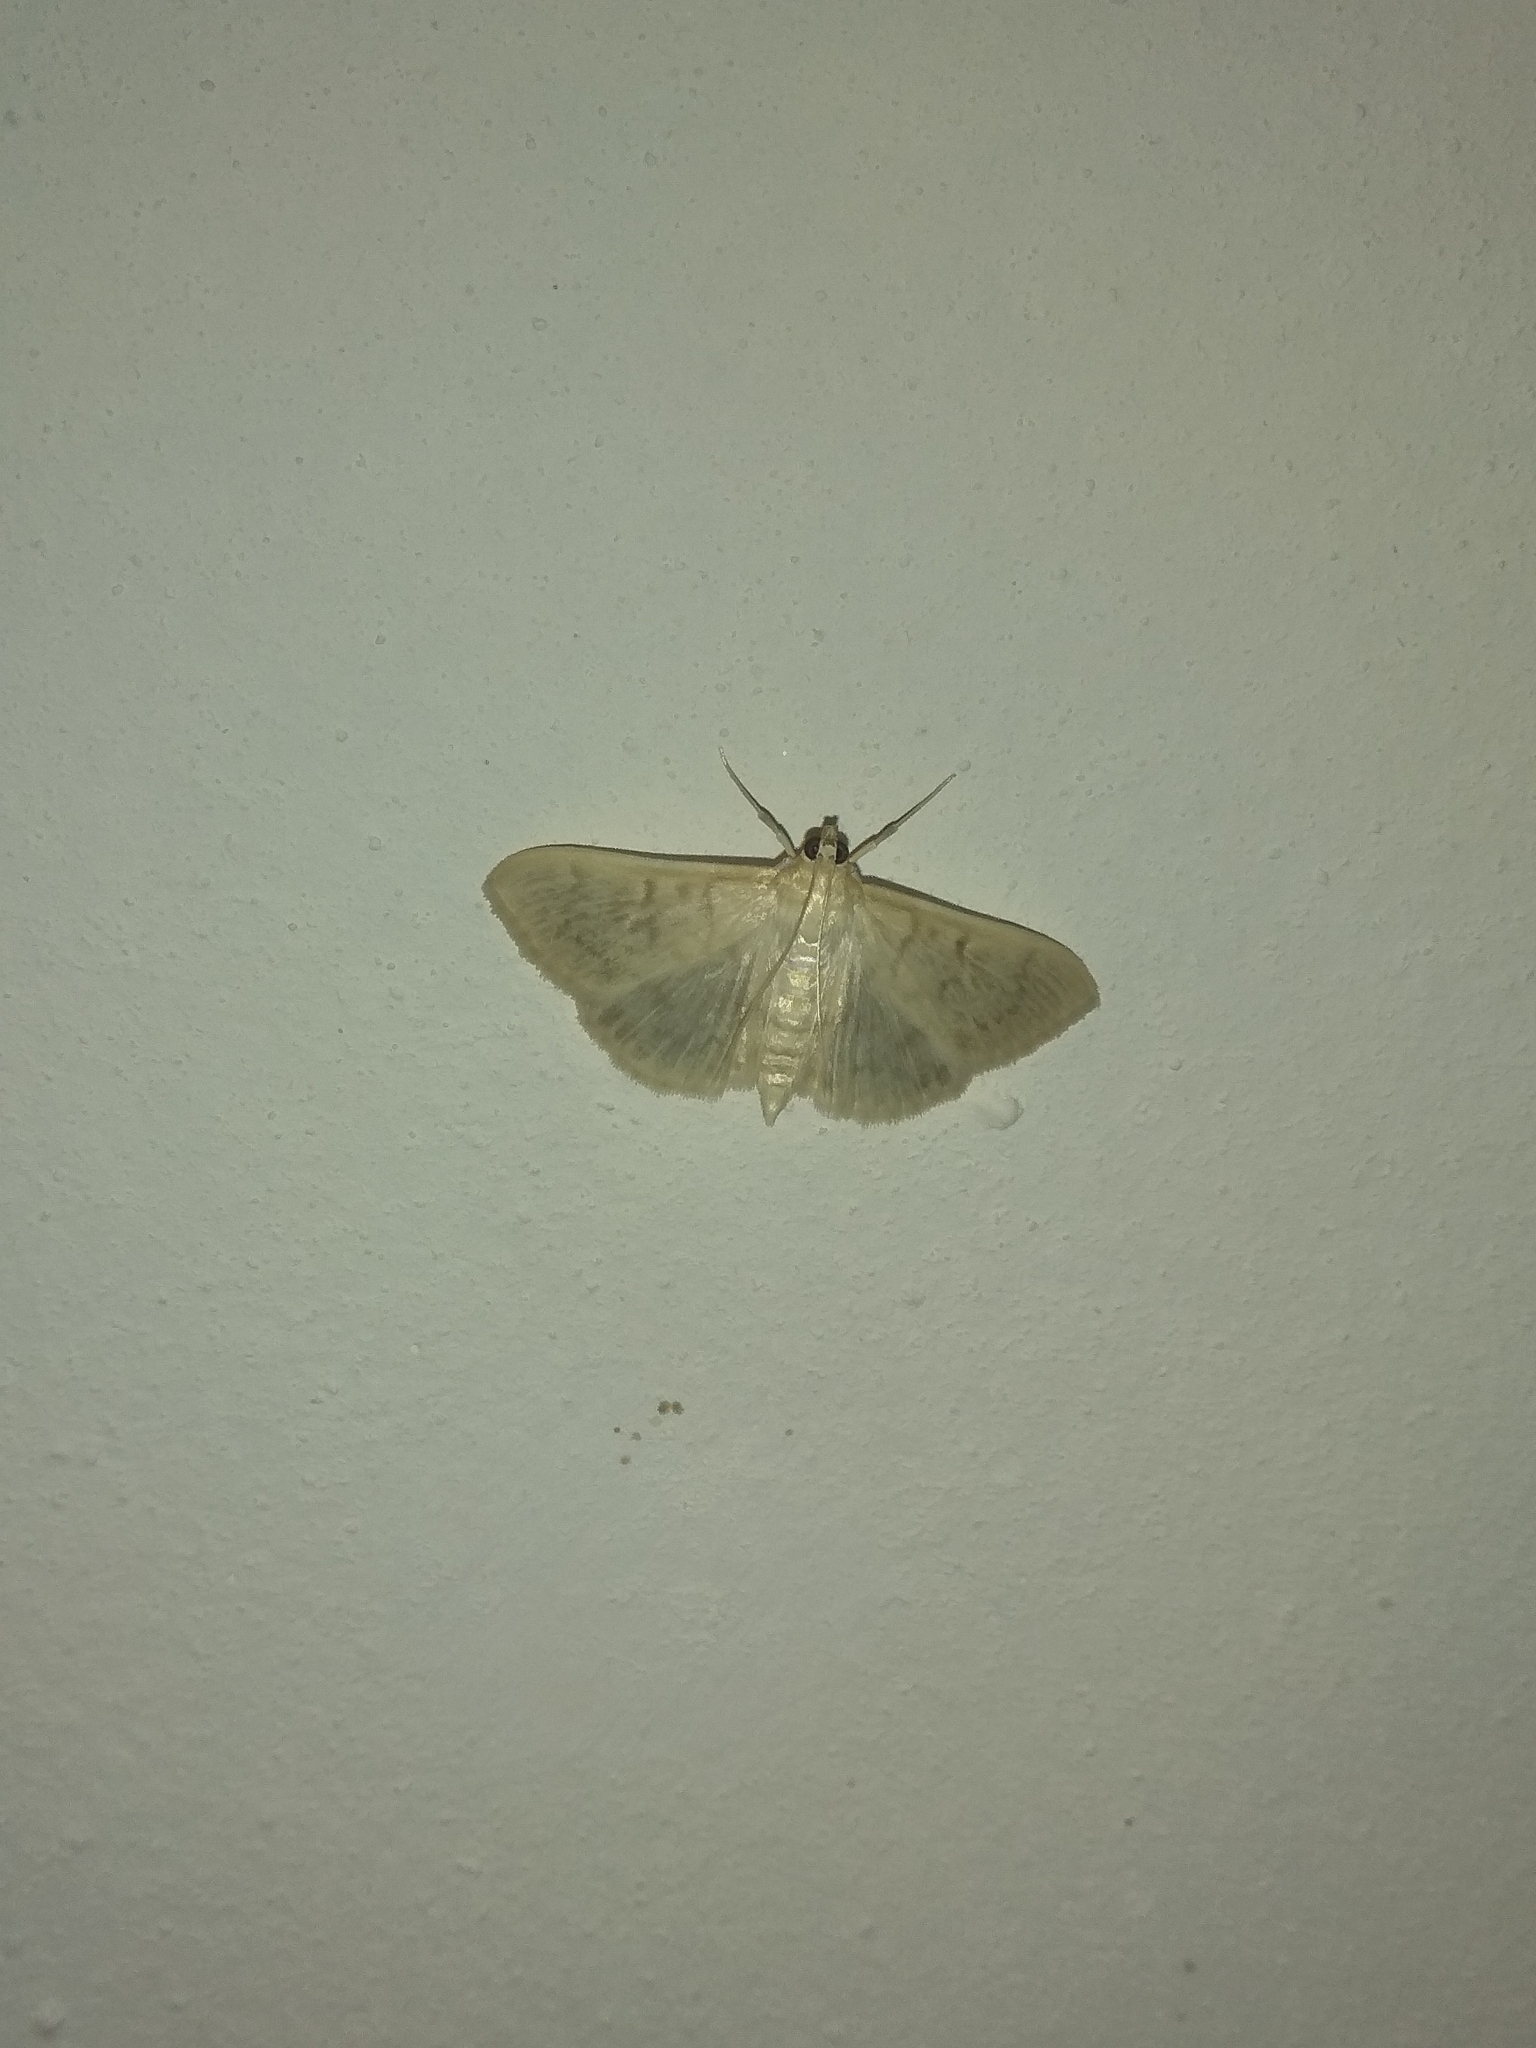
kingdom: Animalia
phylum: Arthropoda
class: Insecta
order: Lepidoptera
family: Crambidae
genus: Patania
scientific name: Patania ruralis
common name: Mother of pearl
